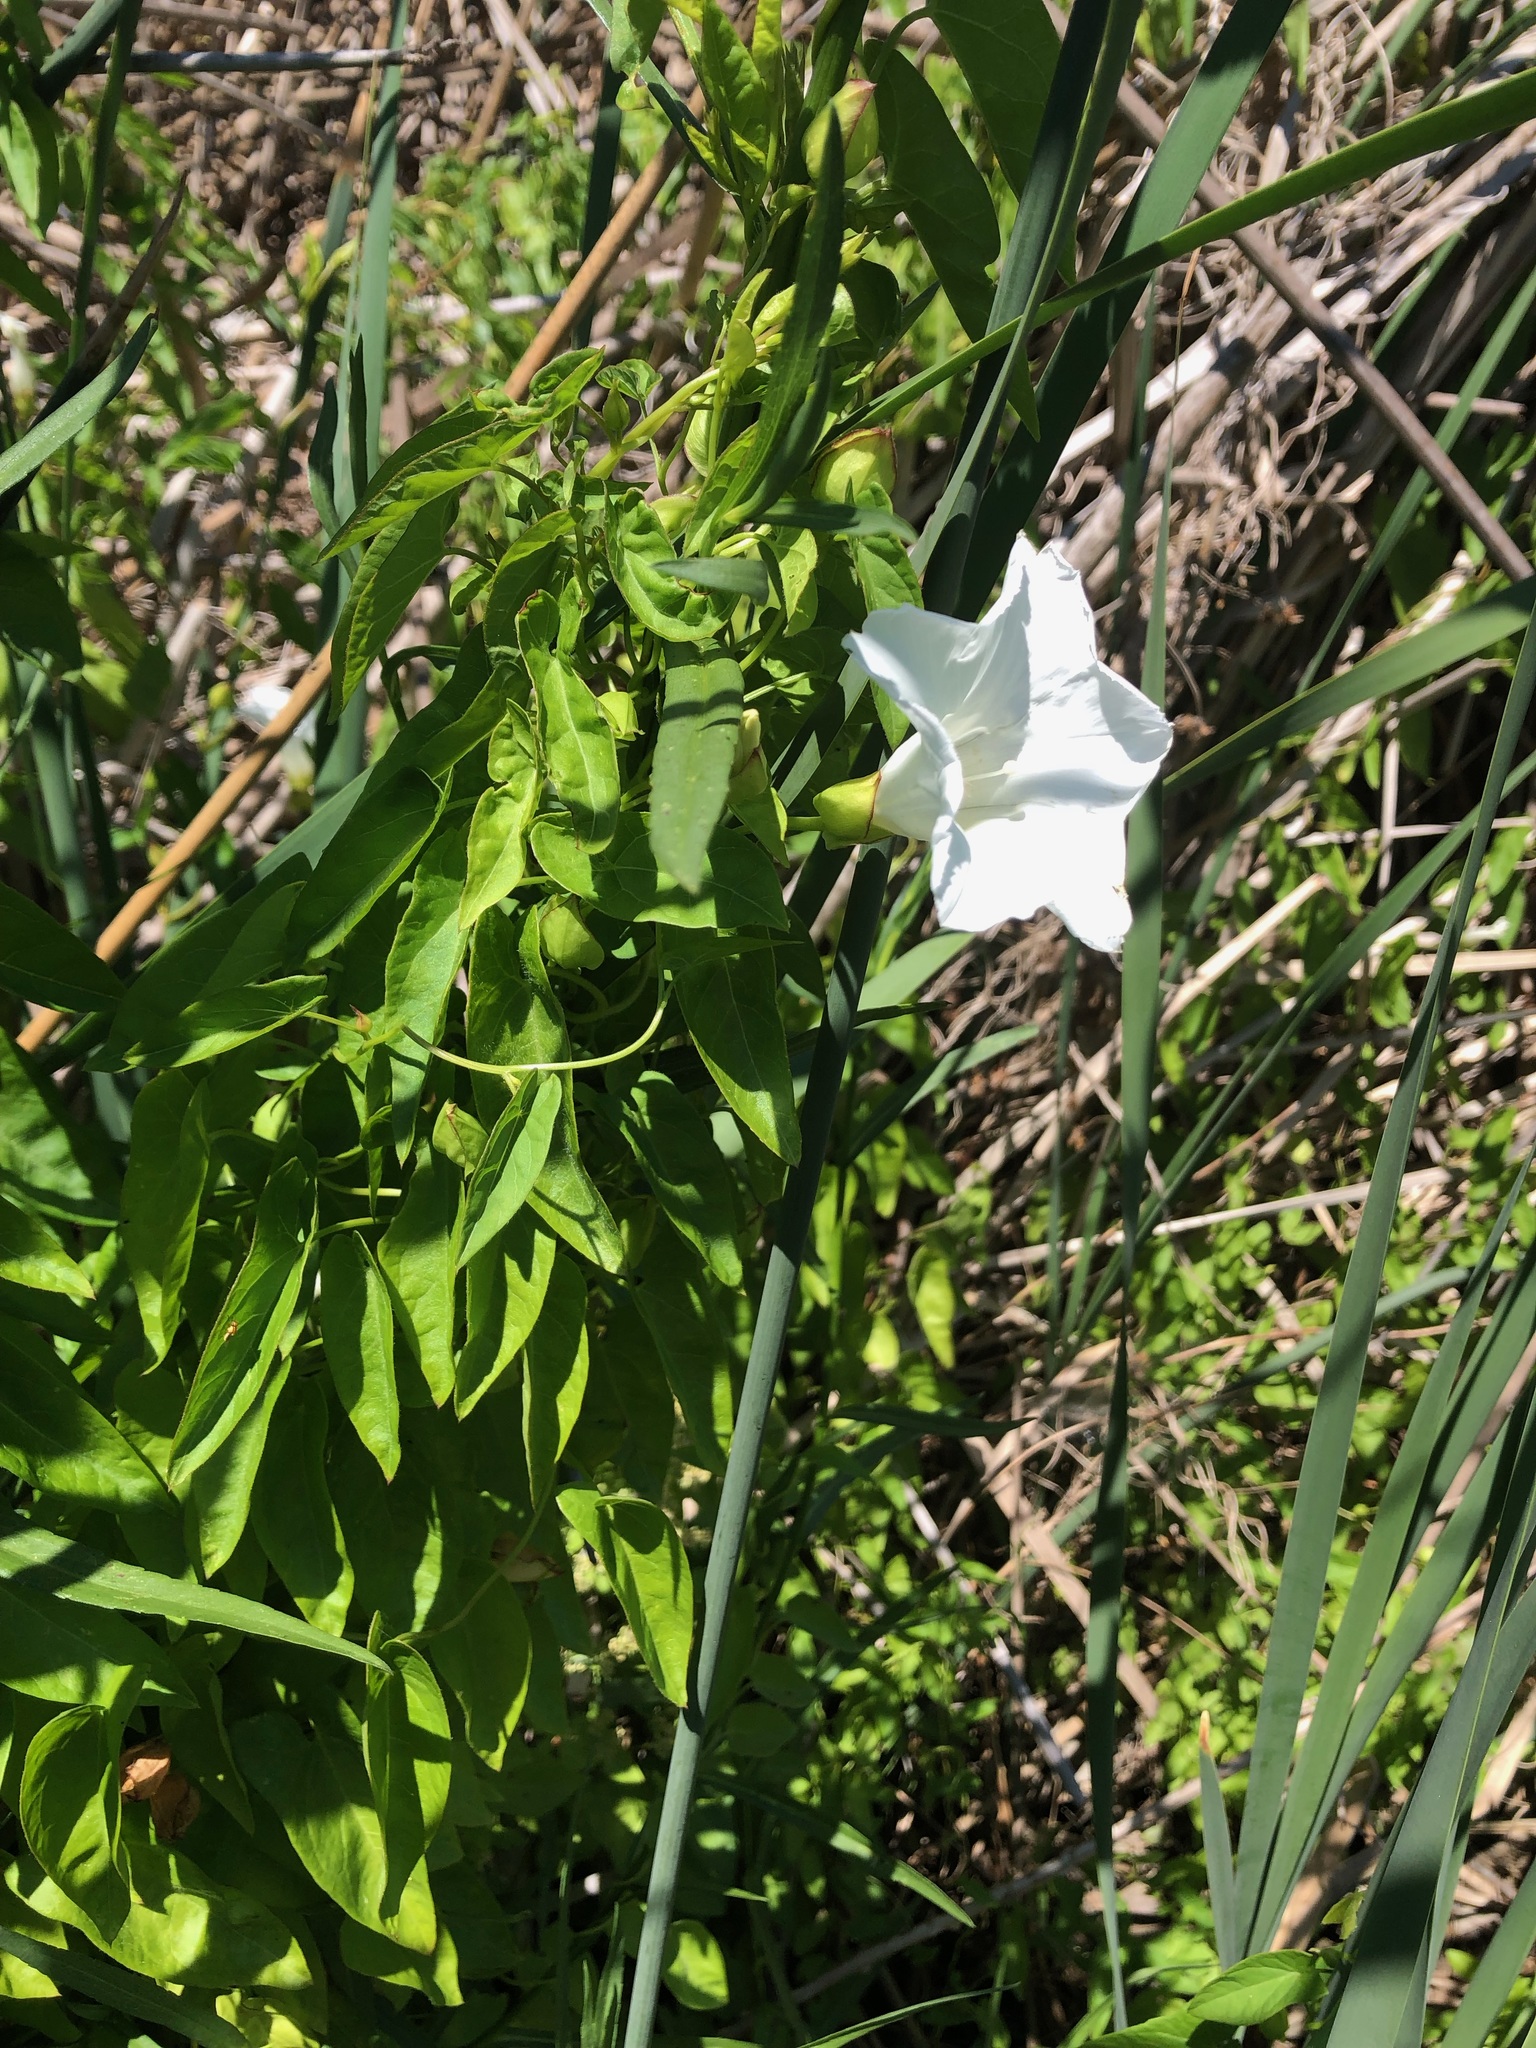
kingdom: Plantae
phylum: Tracheophyta
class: Magnoliopsida
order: Solanales
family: Convolvulaceae
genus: Calystegia
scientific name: Calystegia sepium
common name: Hedge bindweed
